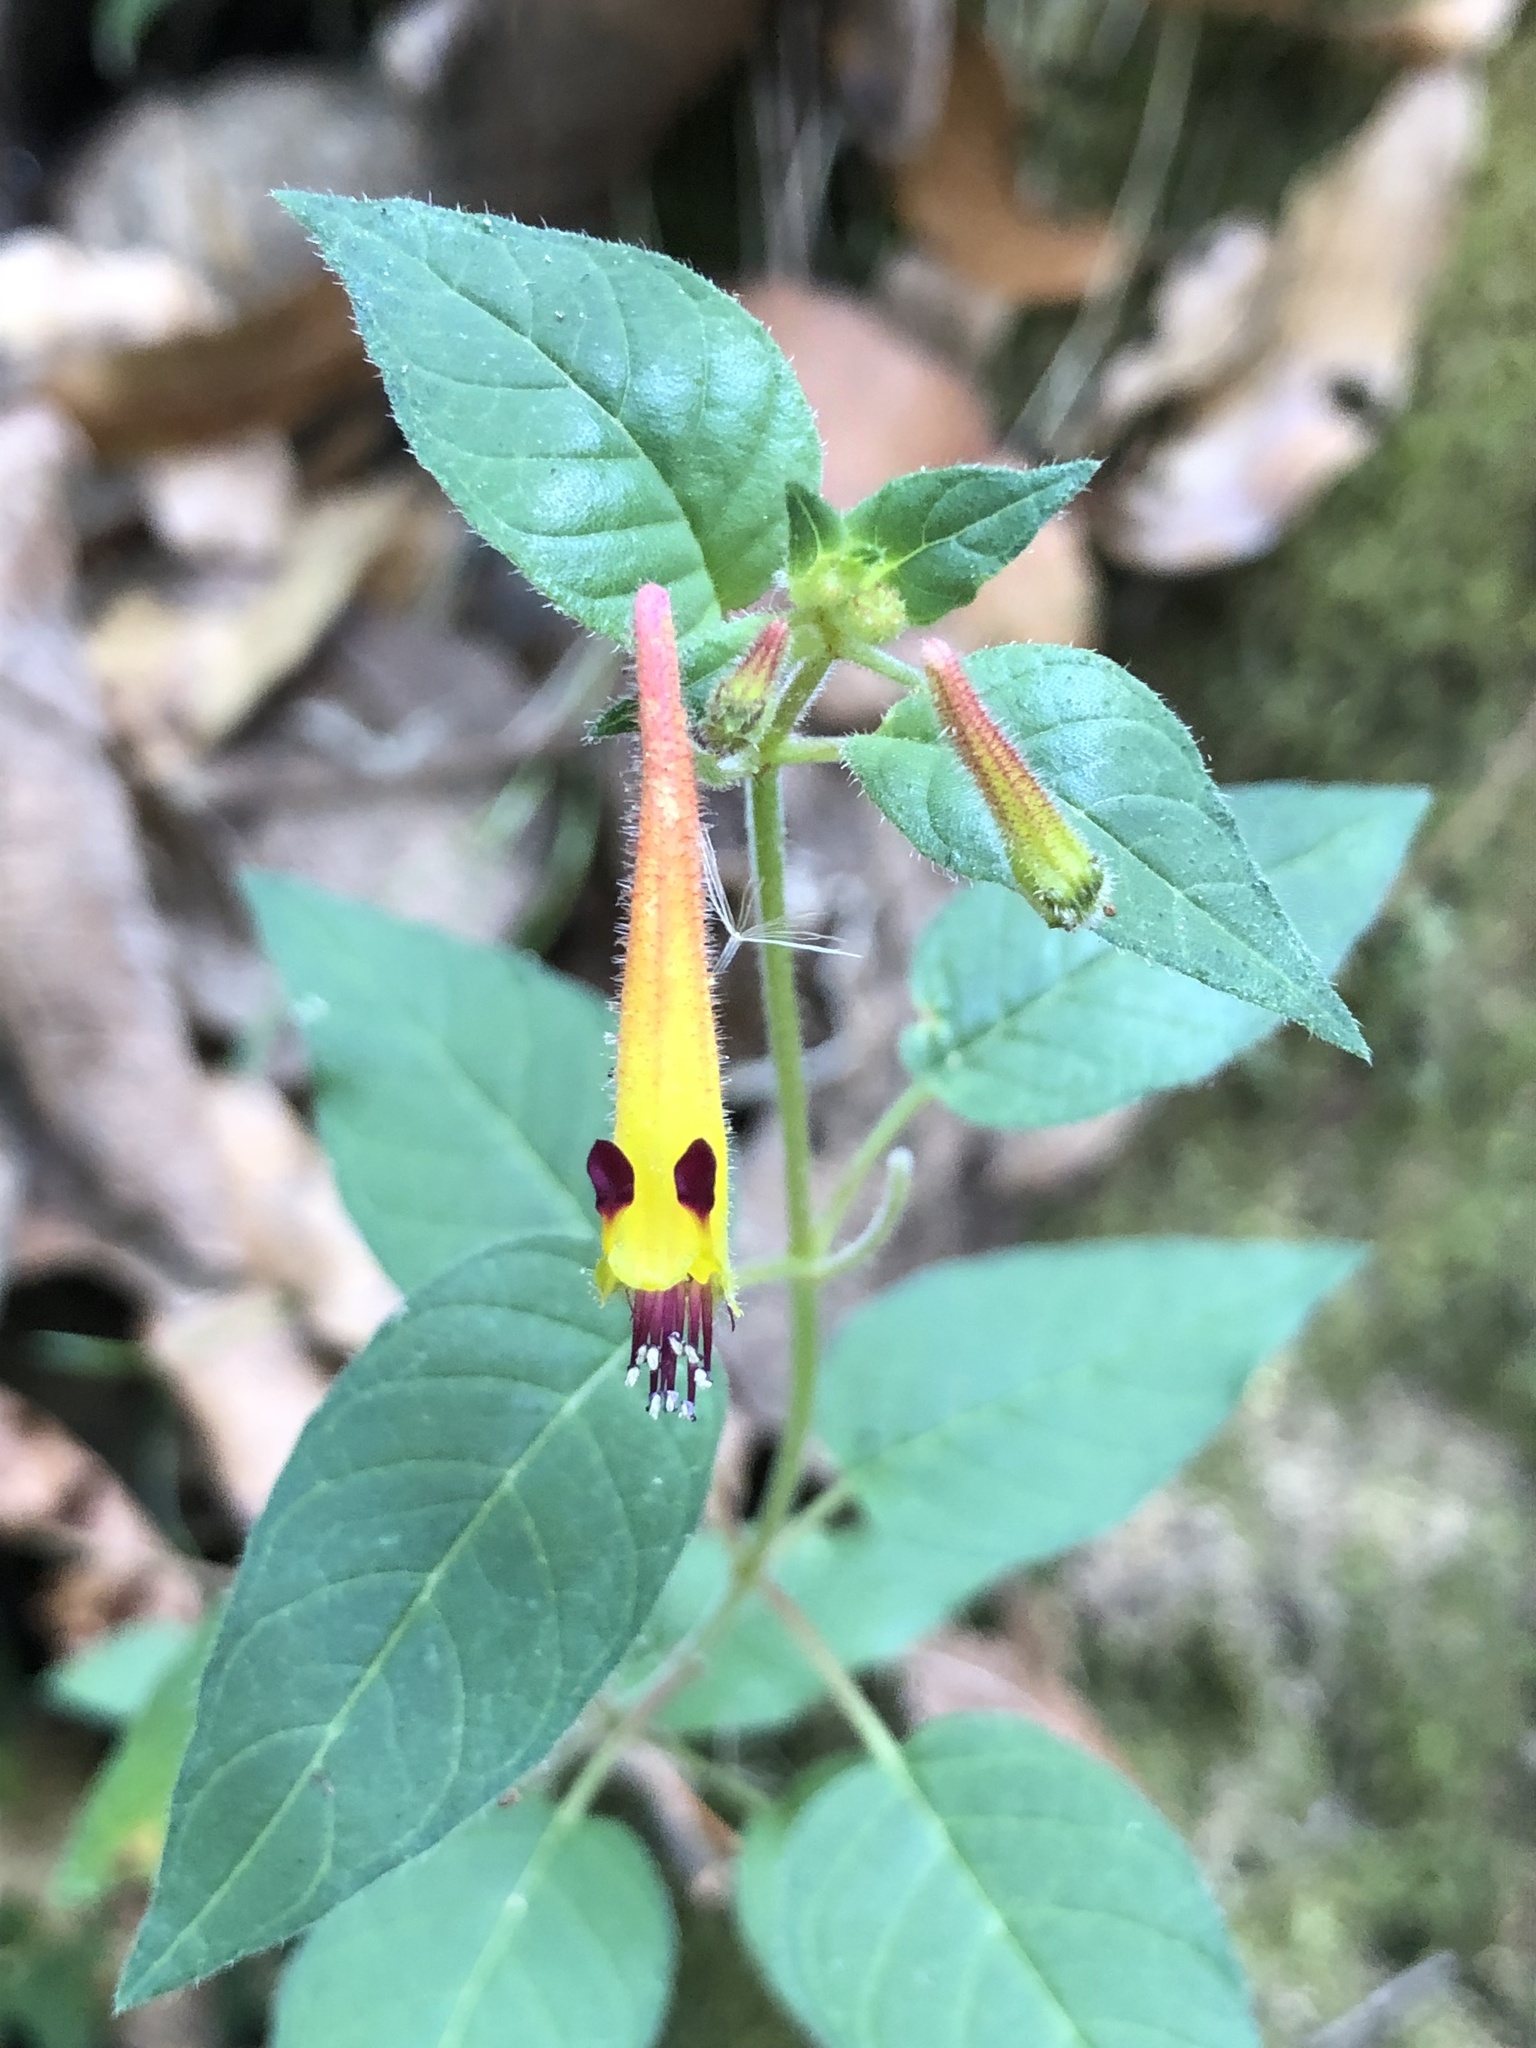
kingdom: Plantae
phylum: Tracheophyta
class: Magnoliopsida
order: Myrtales
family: Lythraceae
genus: Cuphea
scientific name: Cuphea cyanea
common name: Black-eyed cuphea
